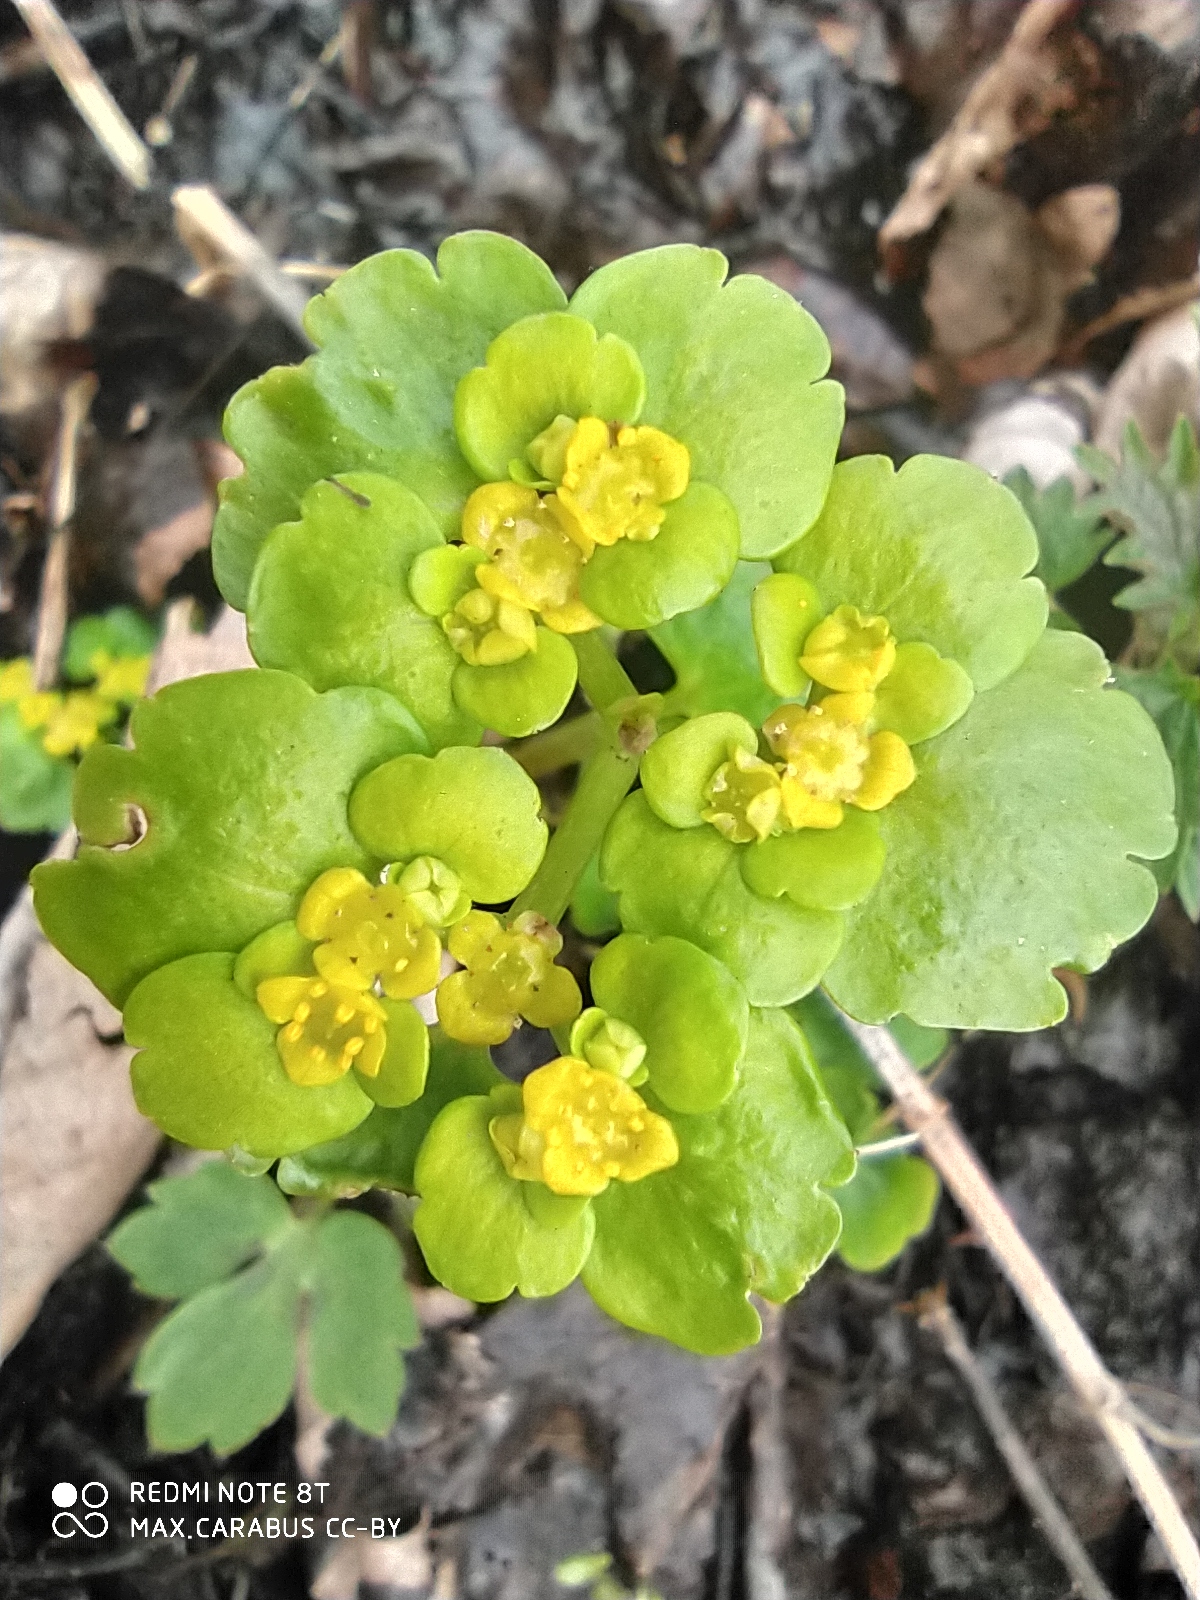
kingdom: Plantae
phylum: Tracheophyta
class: Magnoliopsida
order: Saxifragales
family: Saxifragaceae
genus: Chrysosplenium
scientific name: Chrysosplenium alternifolium
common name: Alternate-leaved golden-saxifrage
